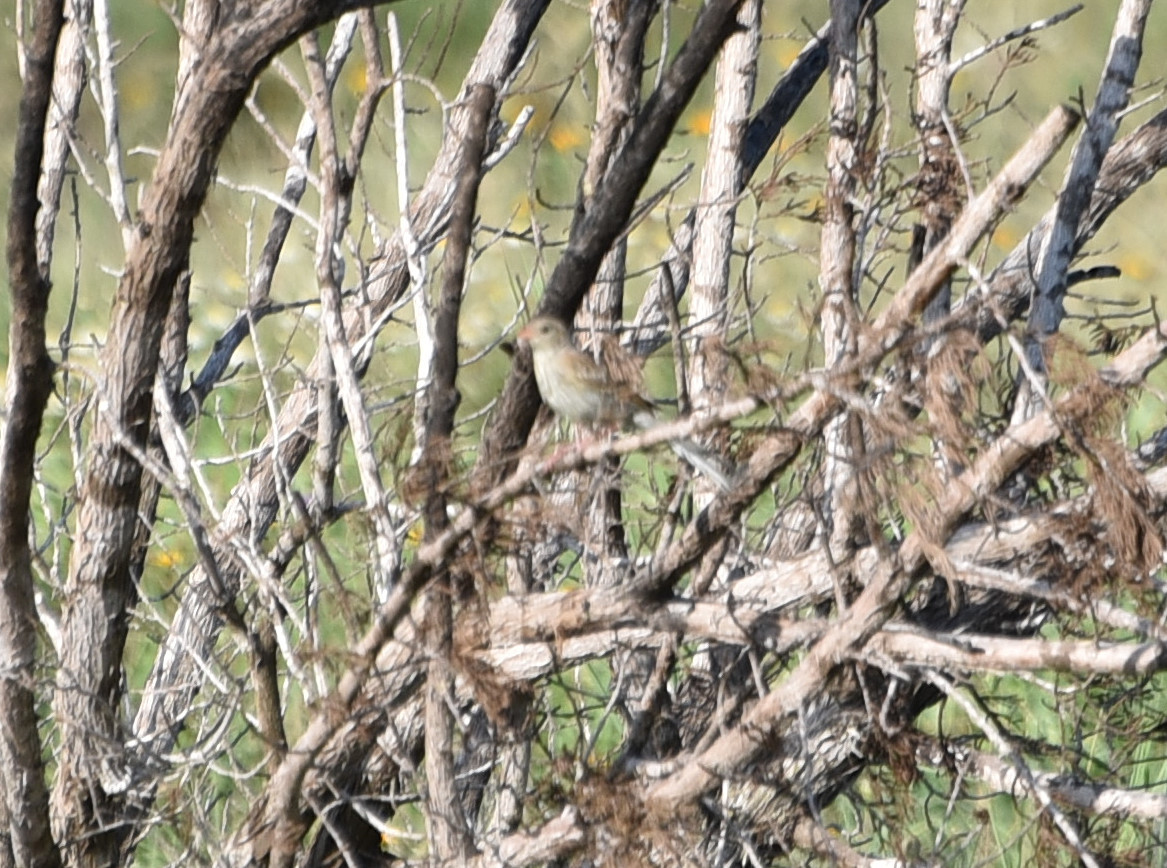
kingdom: Animalia
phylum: Chordata
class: Aves
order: Passeriformes
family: Passerellidae
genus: Spizella
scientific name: Spizella pusilla
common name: Field sparrow
